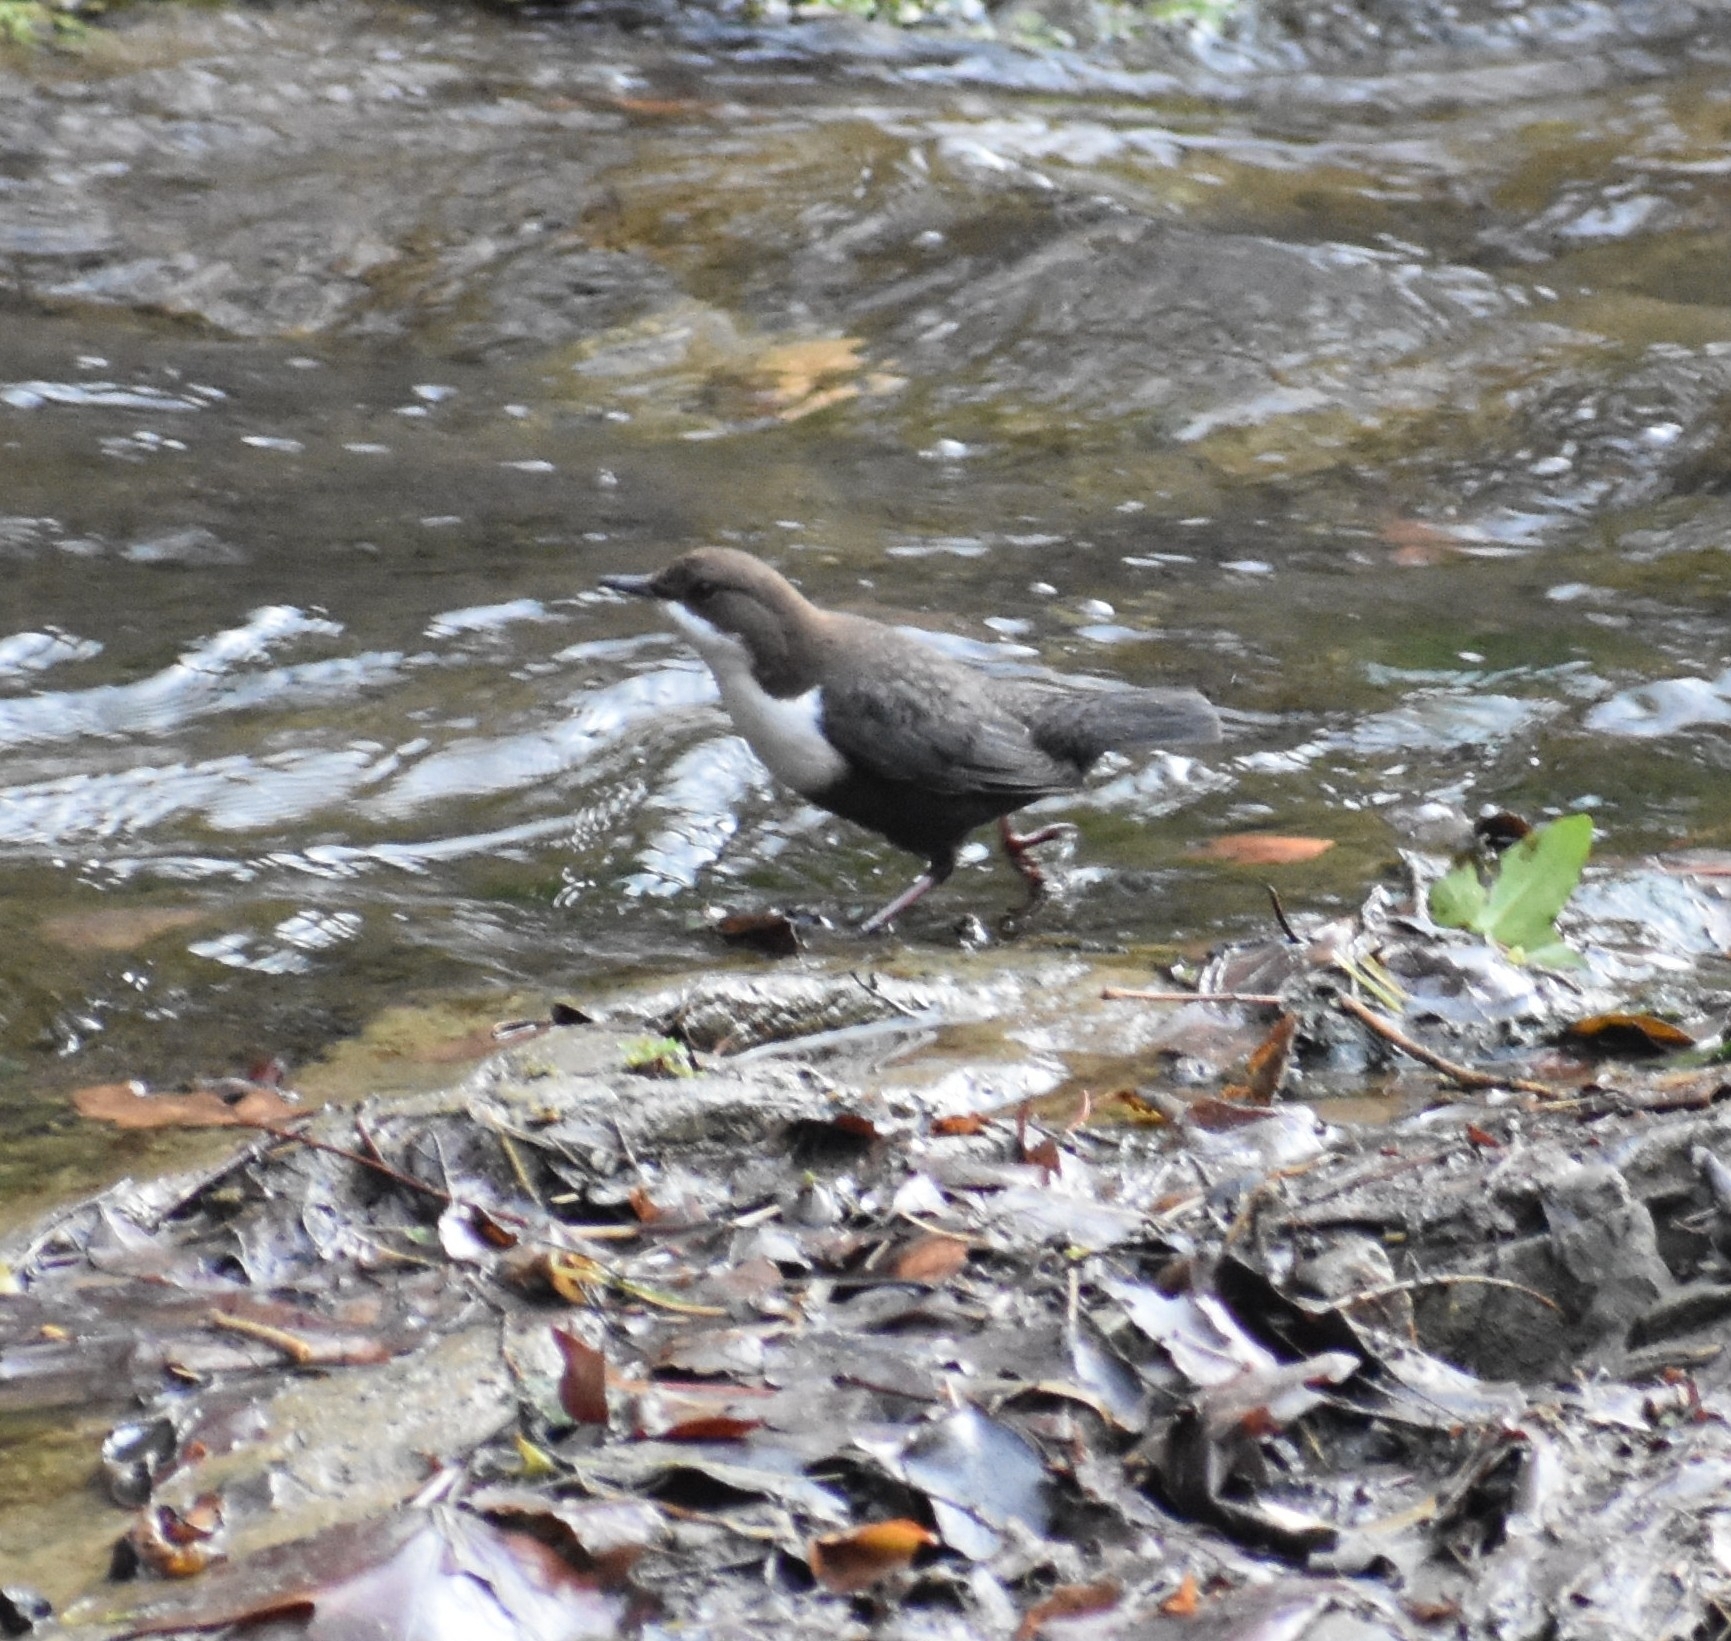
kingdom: Animalia
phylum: Chordata
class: Aves
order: Passeriformes
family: Cinclidae
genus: Cinclus
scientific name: Cinclus cinclus
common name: White-throated dipper
